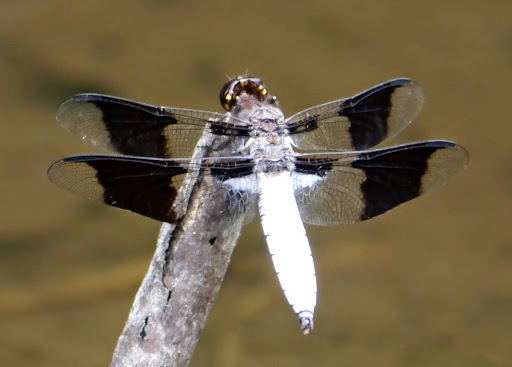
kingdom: Animalia
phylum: Arthropoda
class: Insecta
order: Odonata
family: Libellulidae
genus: Plathemis
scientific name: Plathemis lydia
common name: Common whitetail
